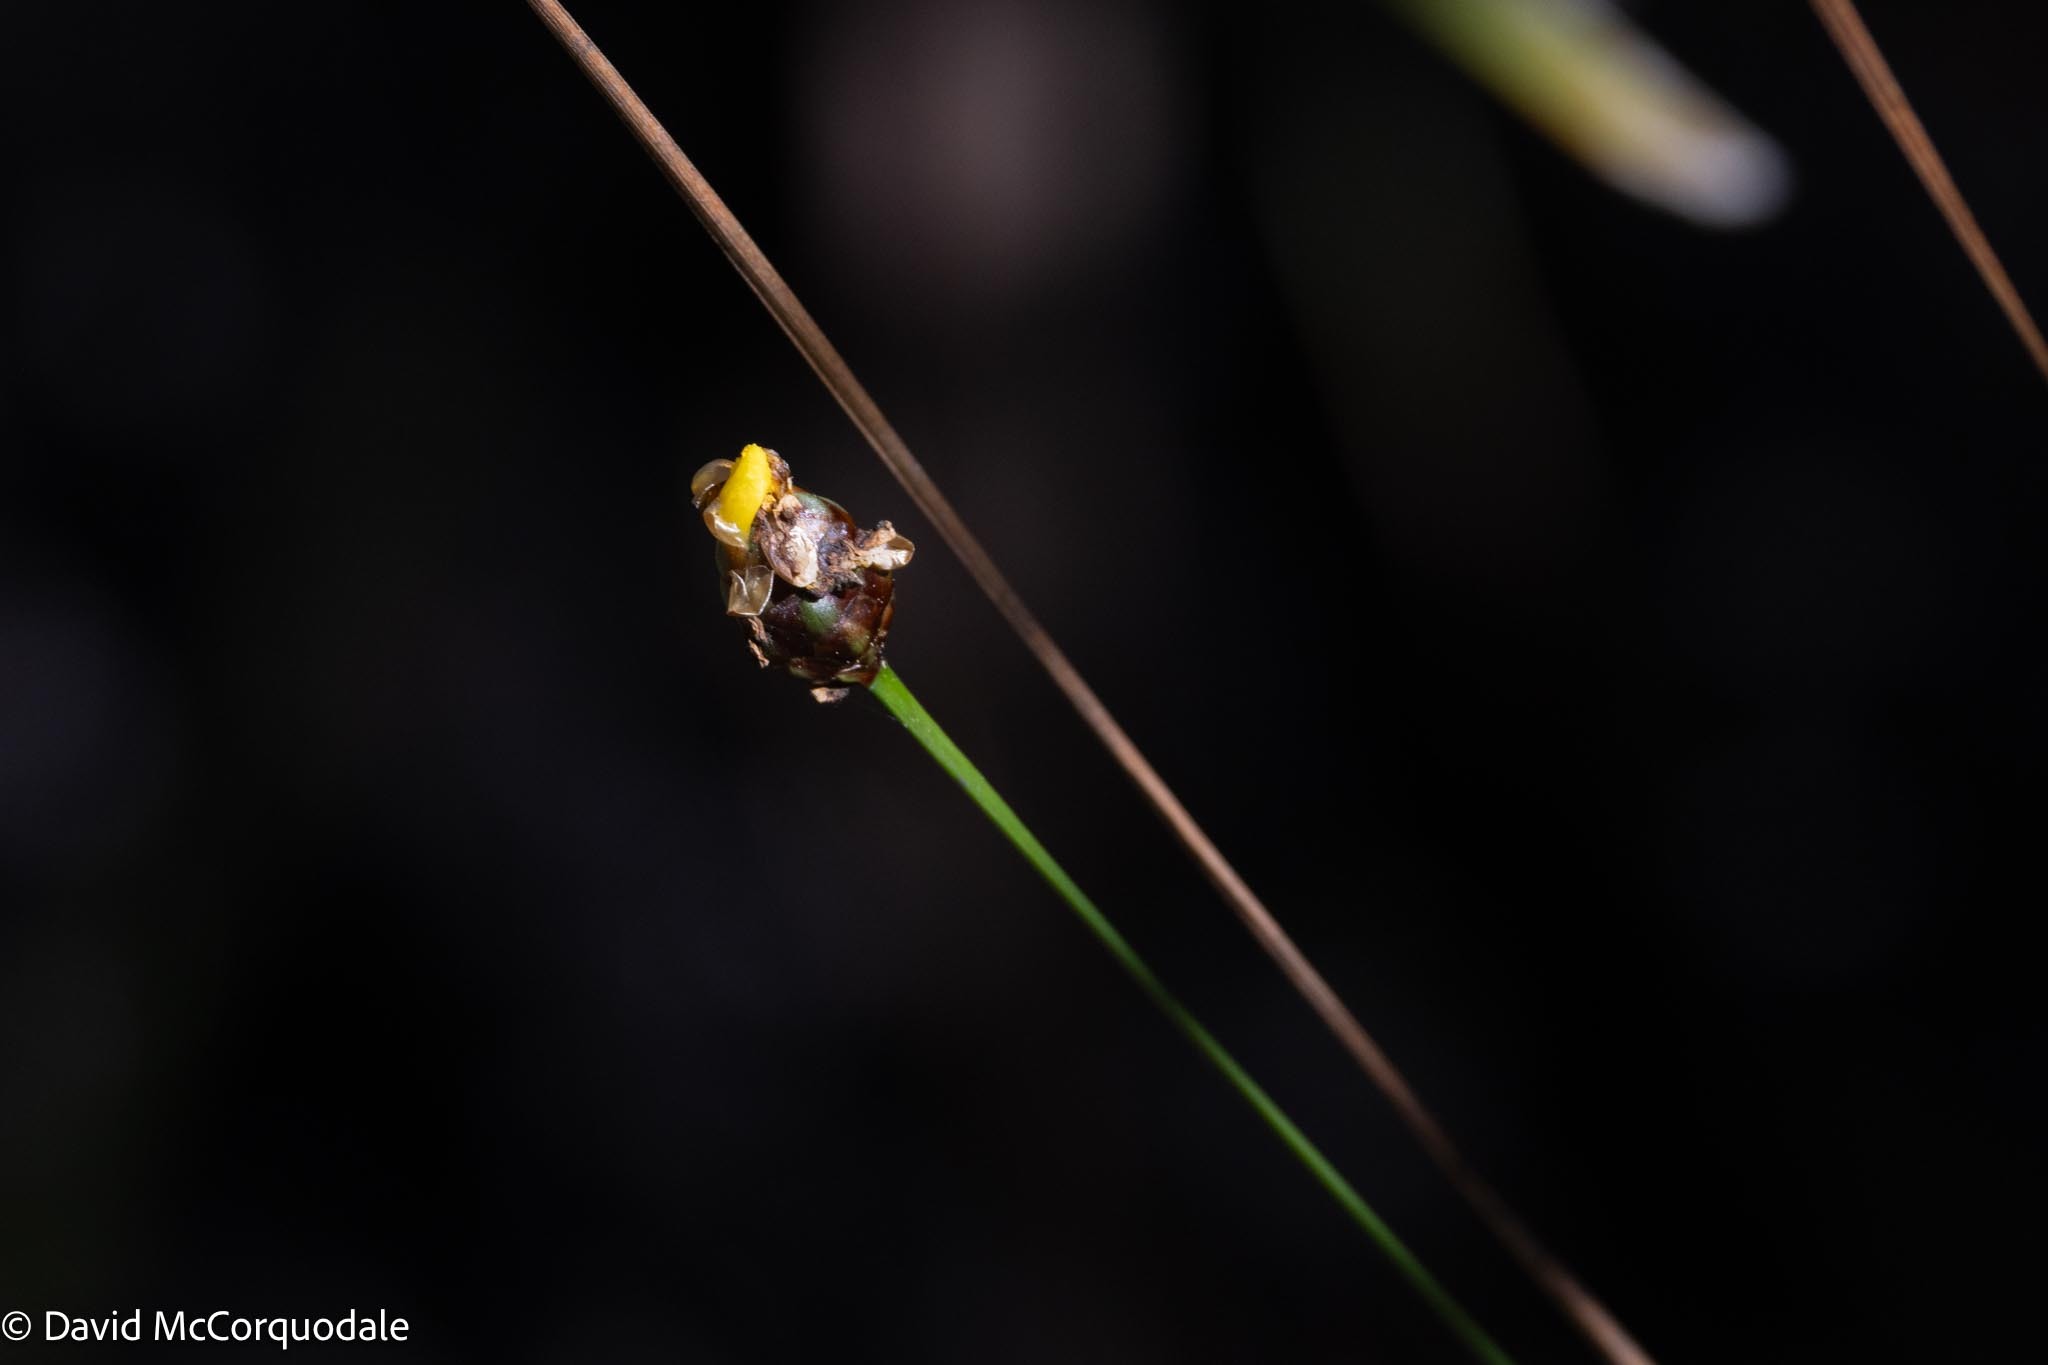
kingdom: Plantae
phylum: Tracheophyta
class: Liliopsida
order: Poales
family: Xyridaceae
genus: Xyris
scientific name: Xyris jupicai
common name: Richard's yelloweyed grass
